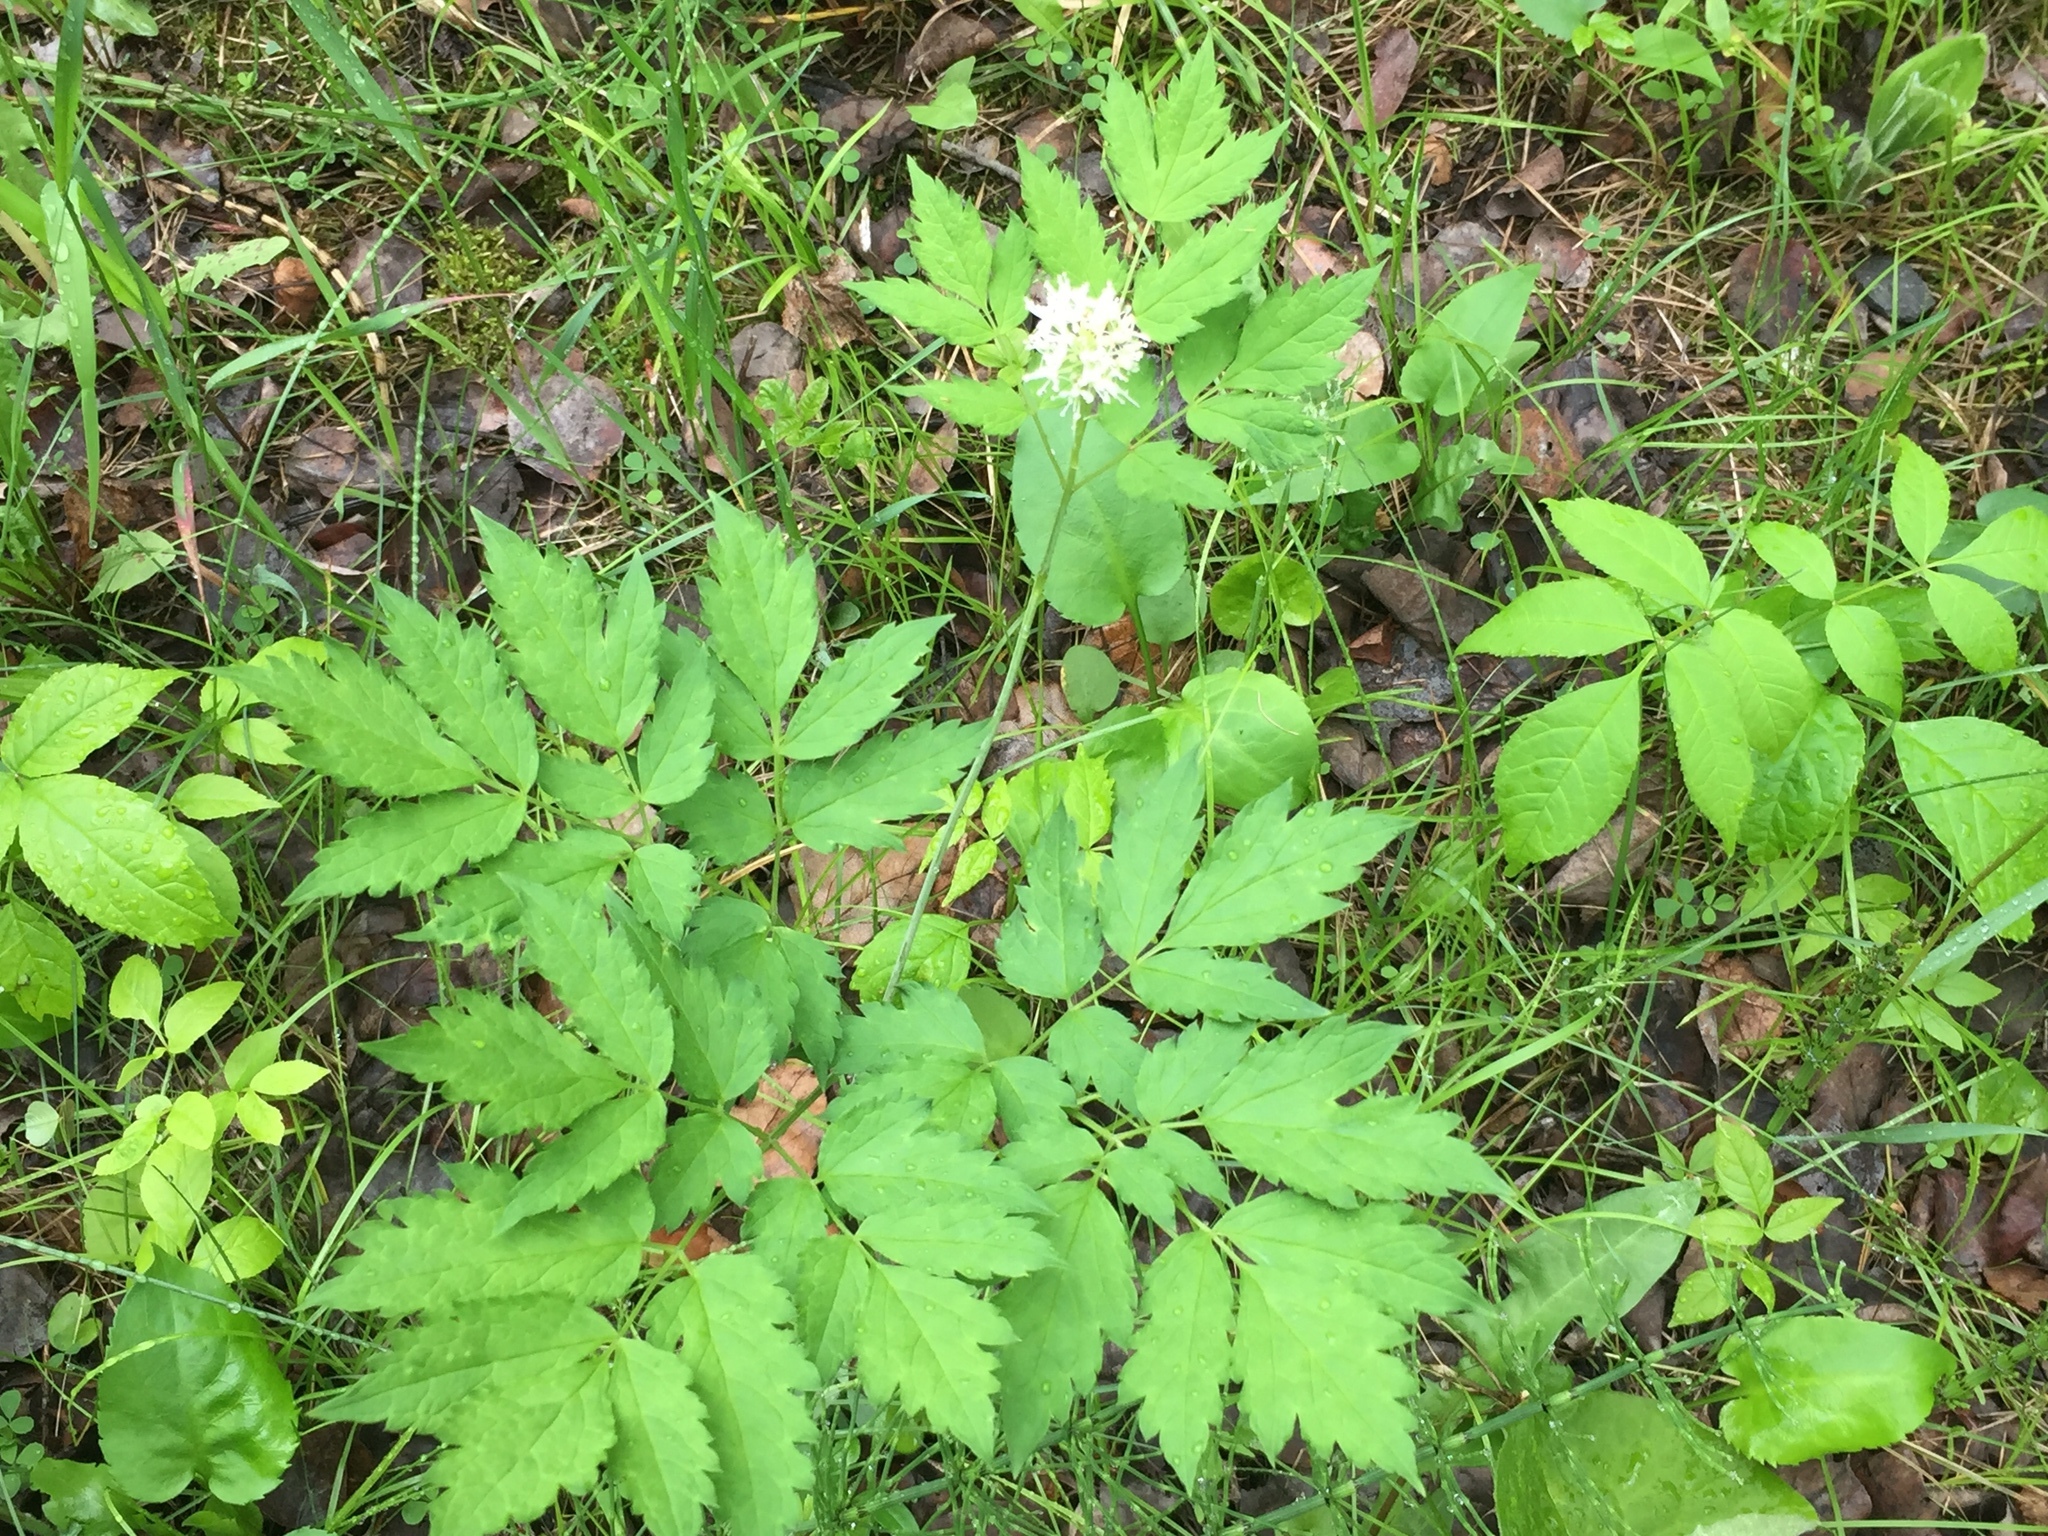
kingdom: Plantae
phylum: Tracheophyta
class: Magnoliopsida
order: Ranunculales
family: Ranunculaceae
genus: Actaea
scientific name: Actaea rubra
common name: Red baneberry
